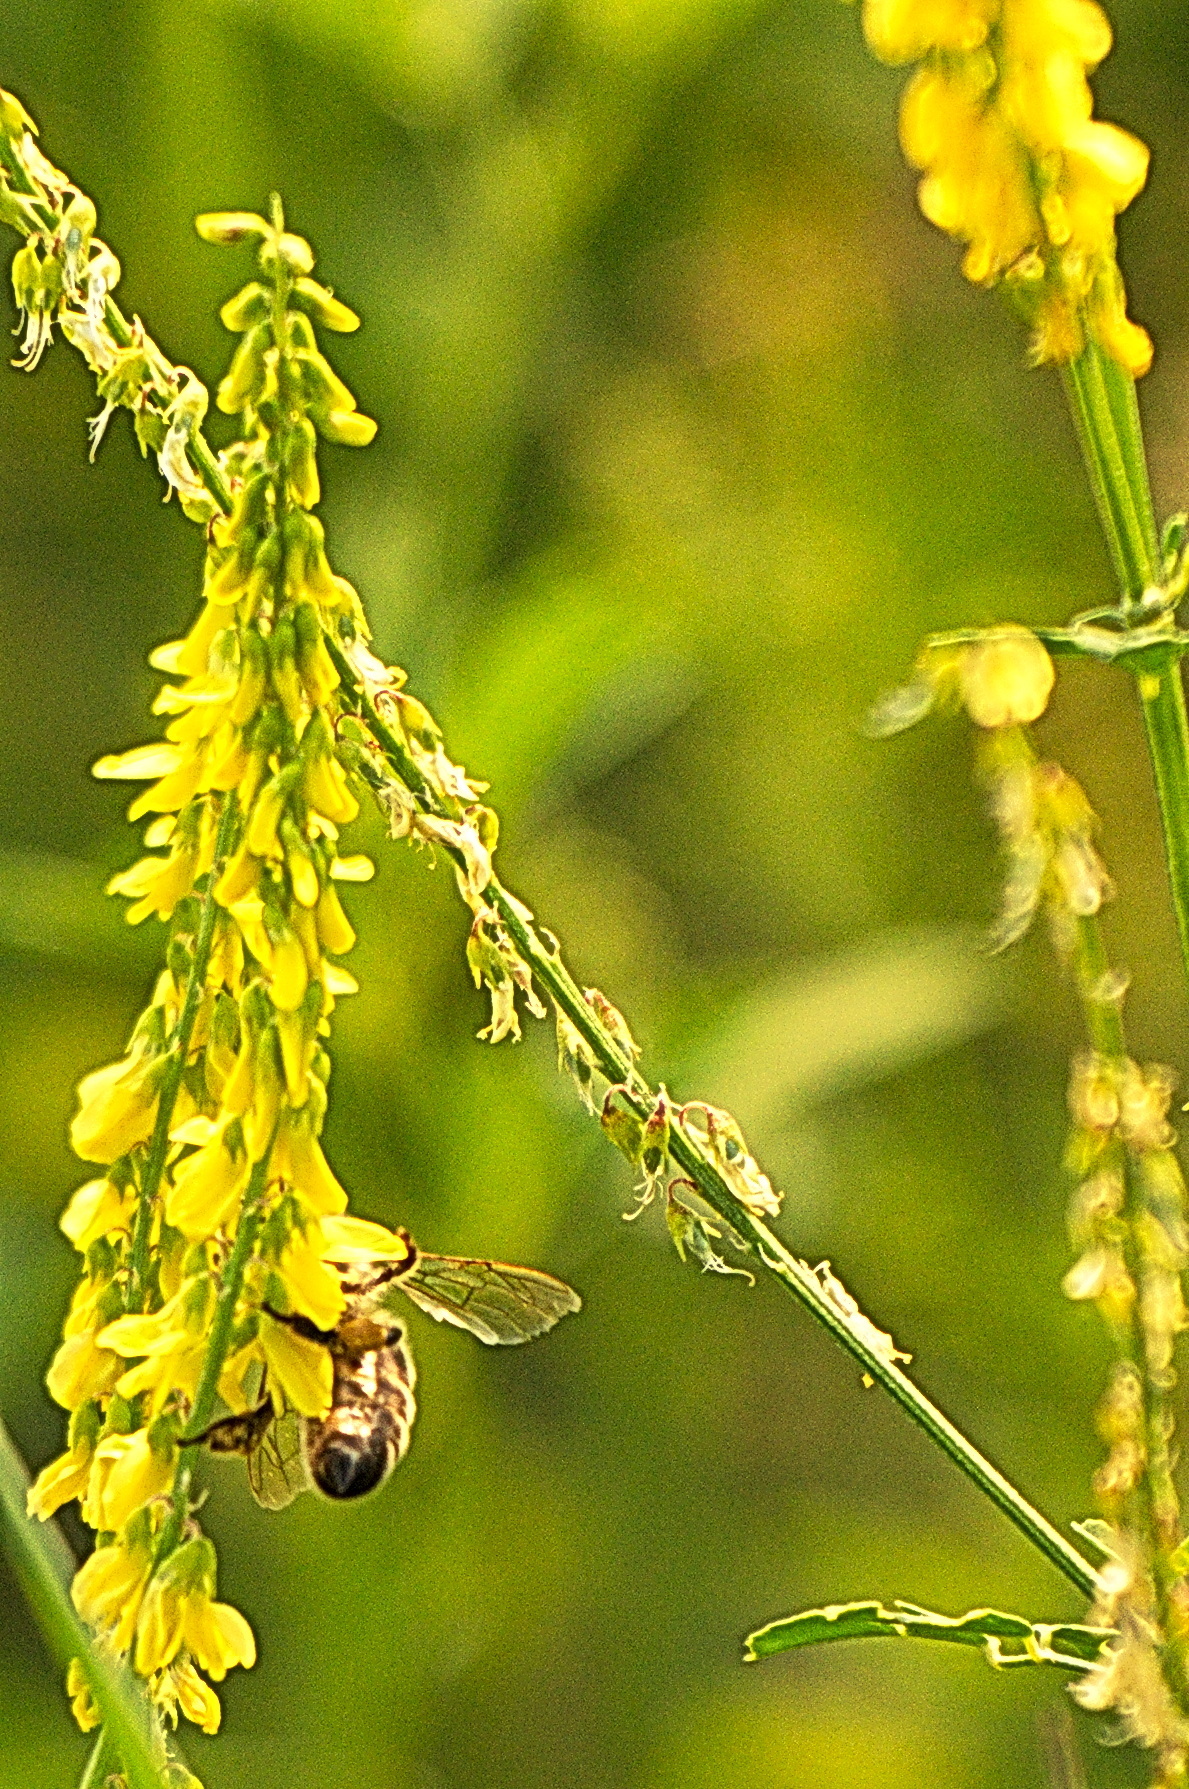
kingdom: Animalia
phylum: Arthropoda
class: Insecta
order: Hymenoptera
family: Apidae
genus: Apis
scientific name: Apis mellifera
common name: Honey bee
